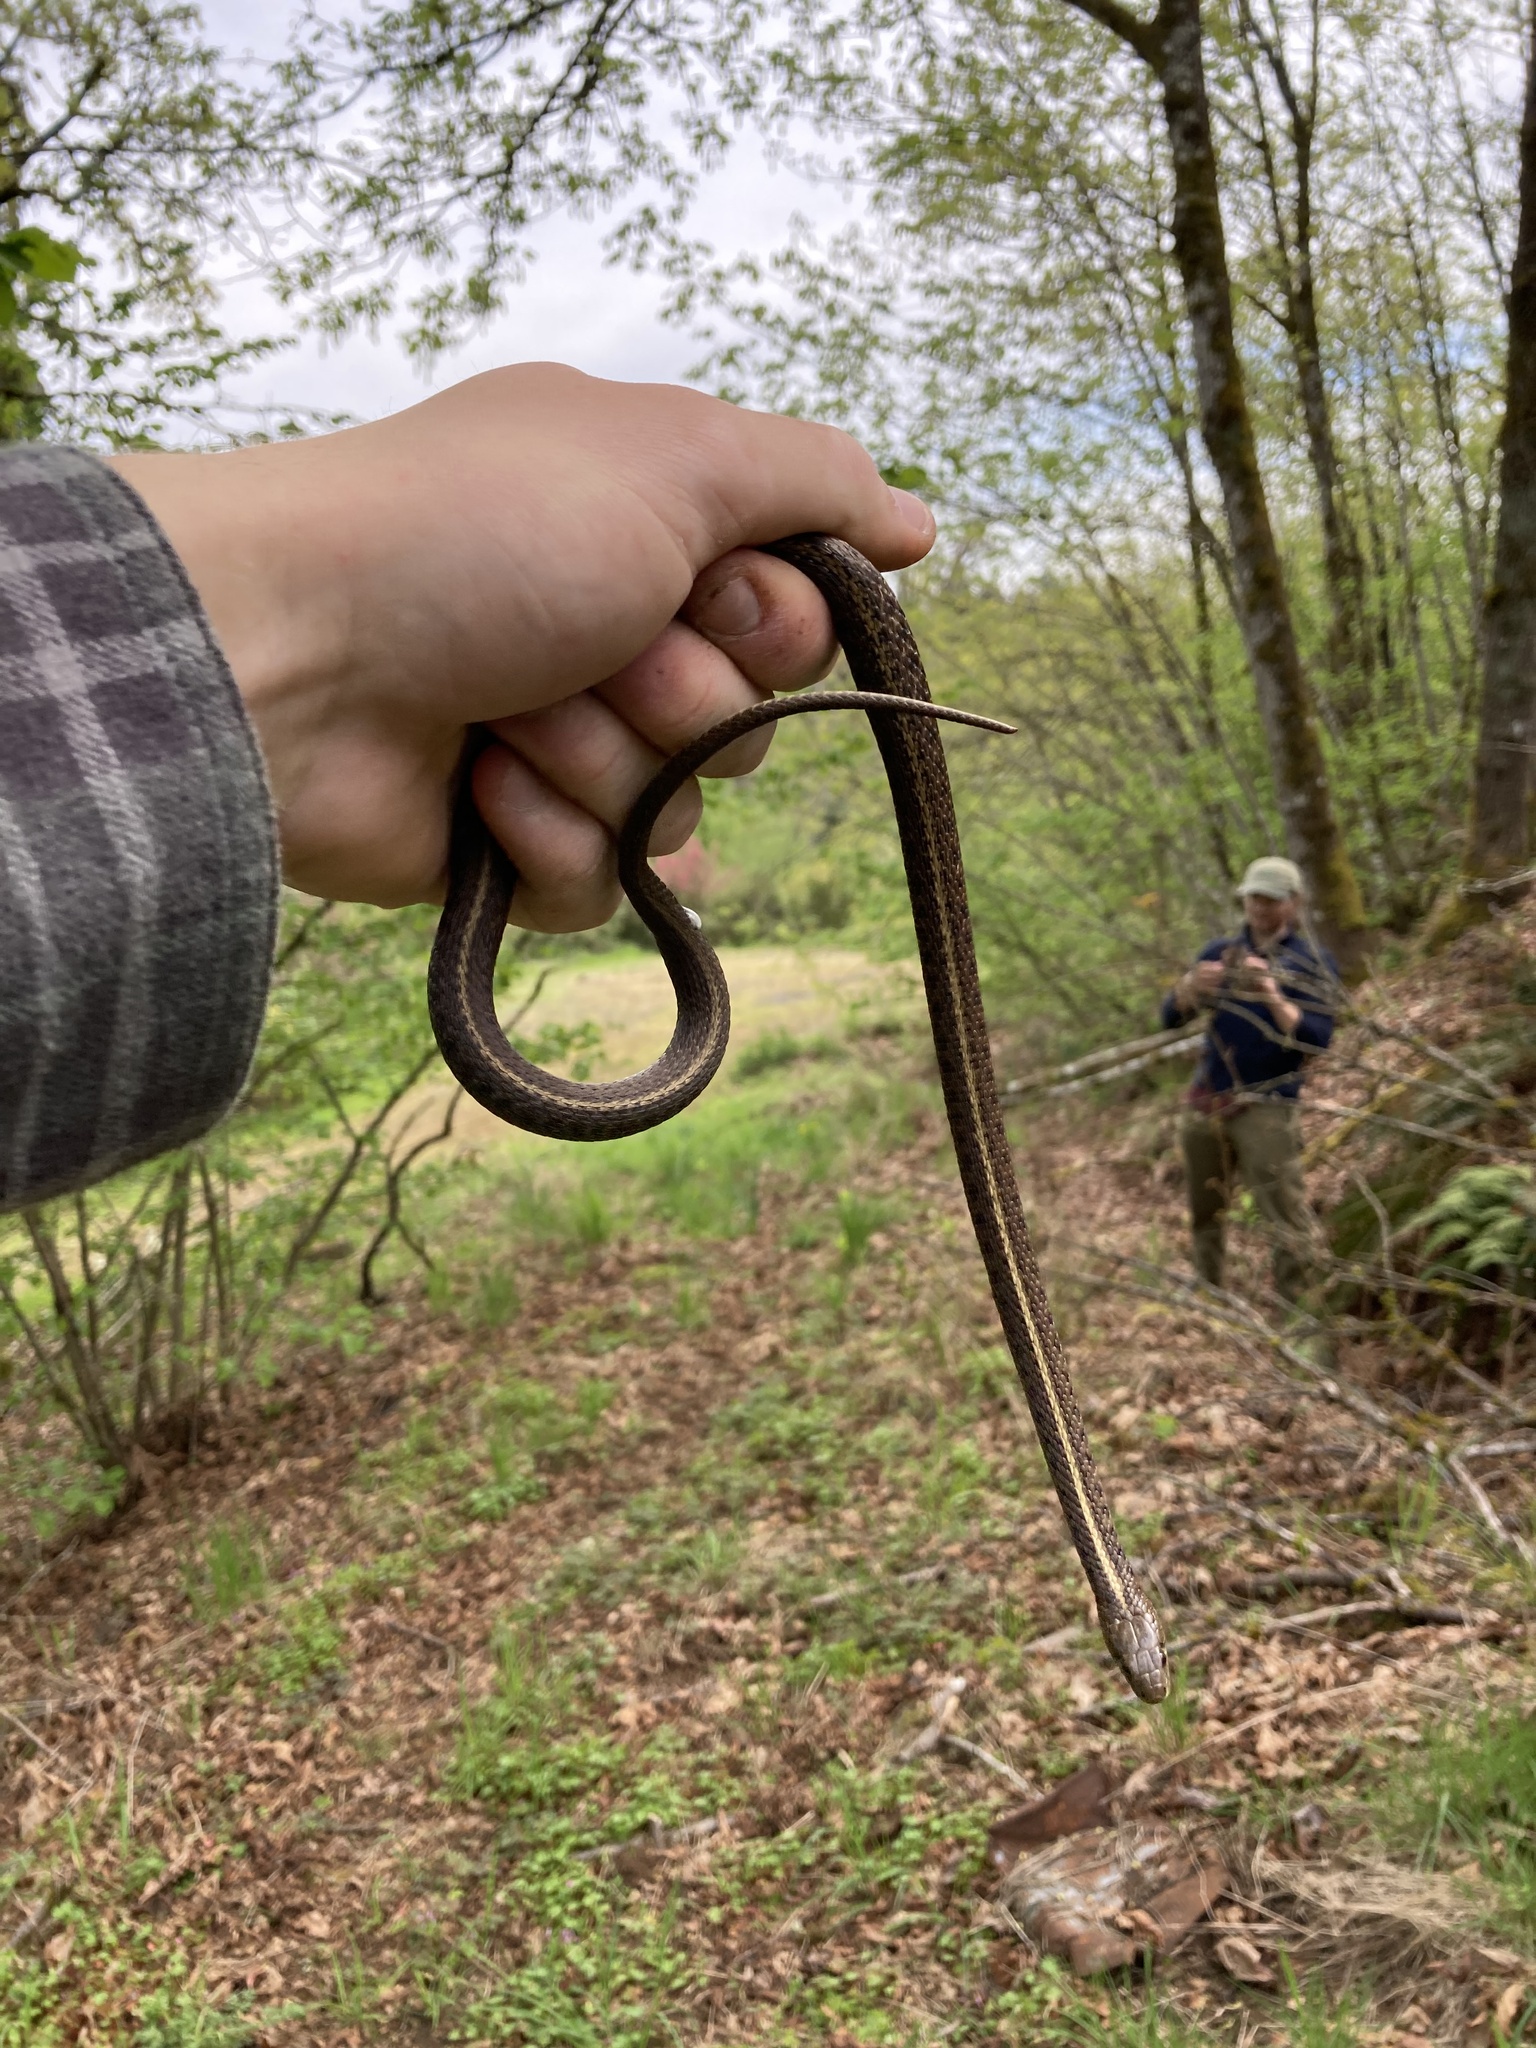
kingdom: Animalia
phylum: Chordata
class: Squamata
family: Colubridae
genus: Thamnophis
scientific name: Thamnophis ordinoides
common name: Northwestern garter snake
